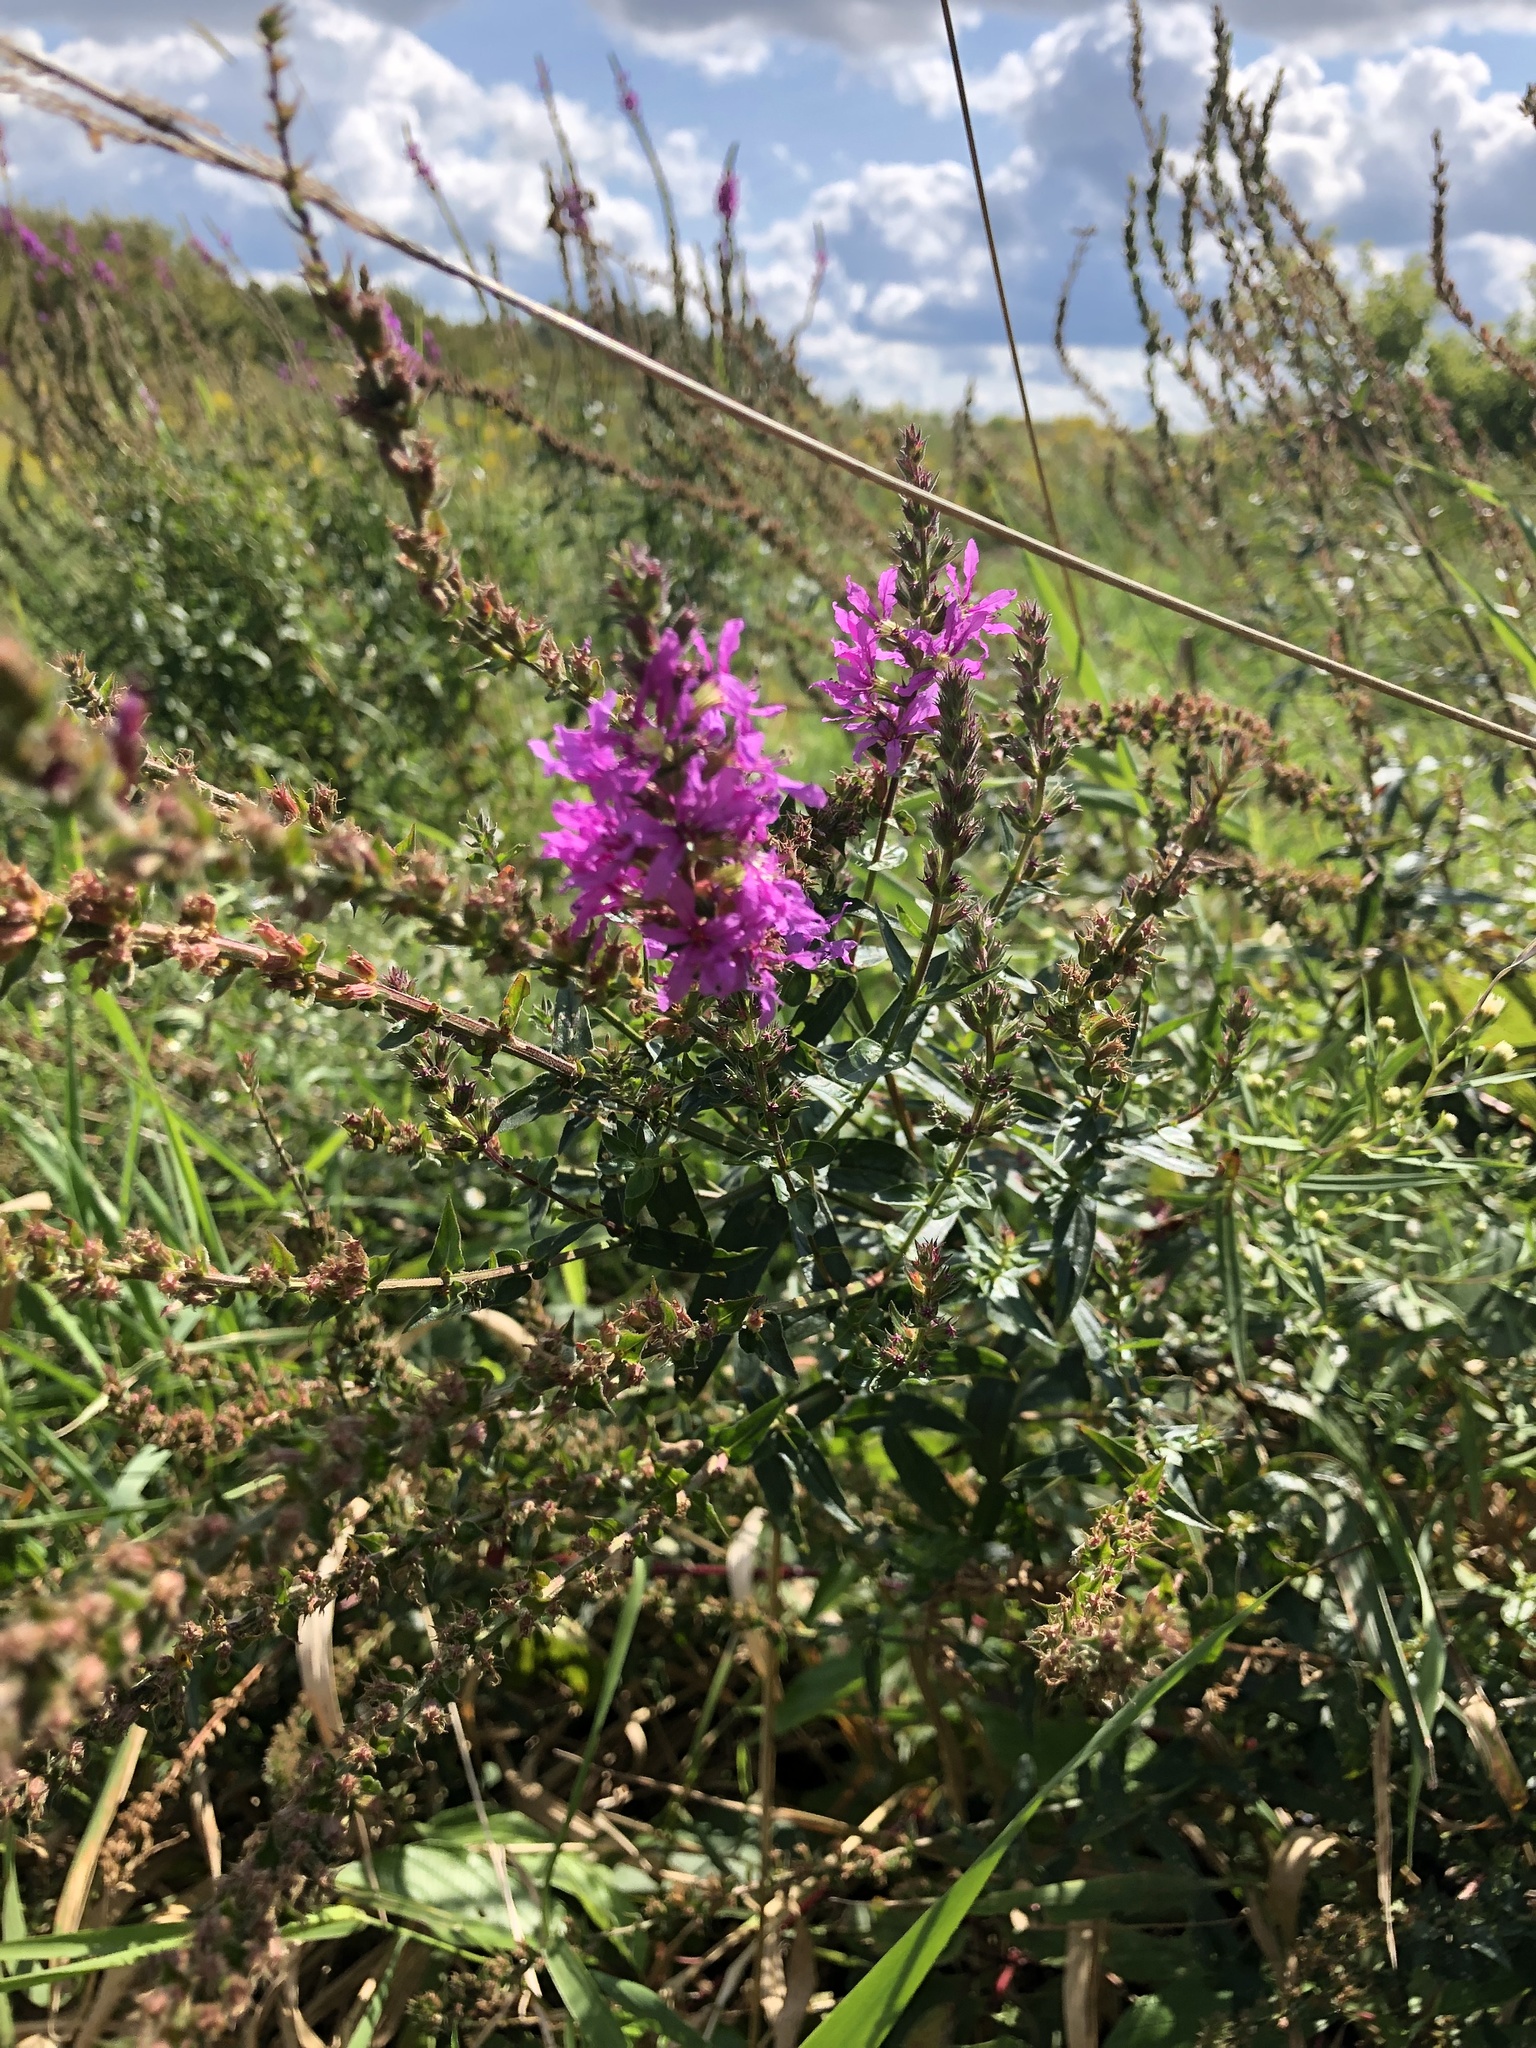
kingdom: Plantae
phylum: Tracheophyta
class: Magnoliopsida
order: Myrtales
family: Lythraceae
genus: Lythrum
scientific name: Lythrum salicaria
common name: Purple loosestrife
